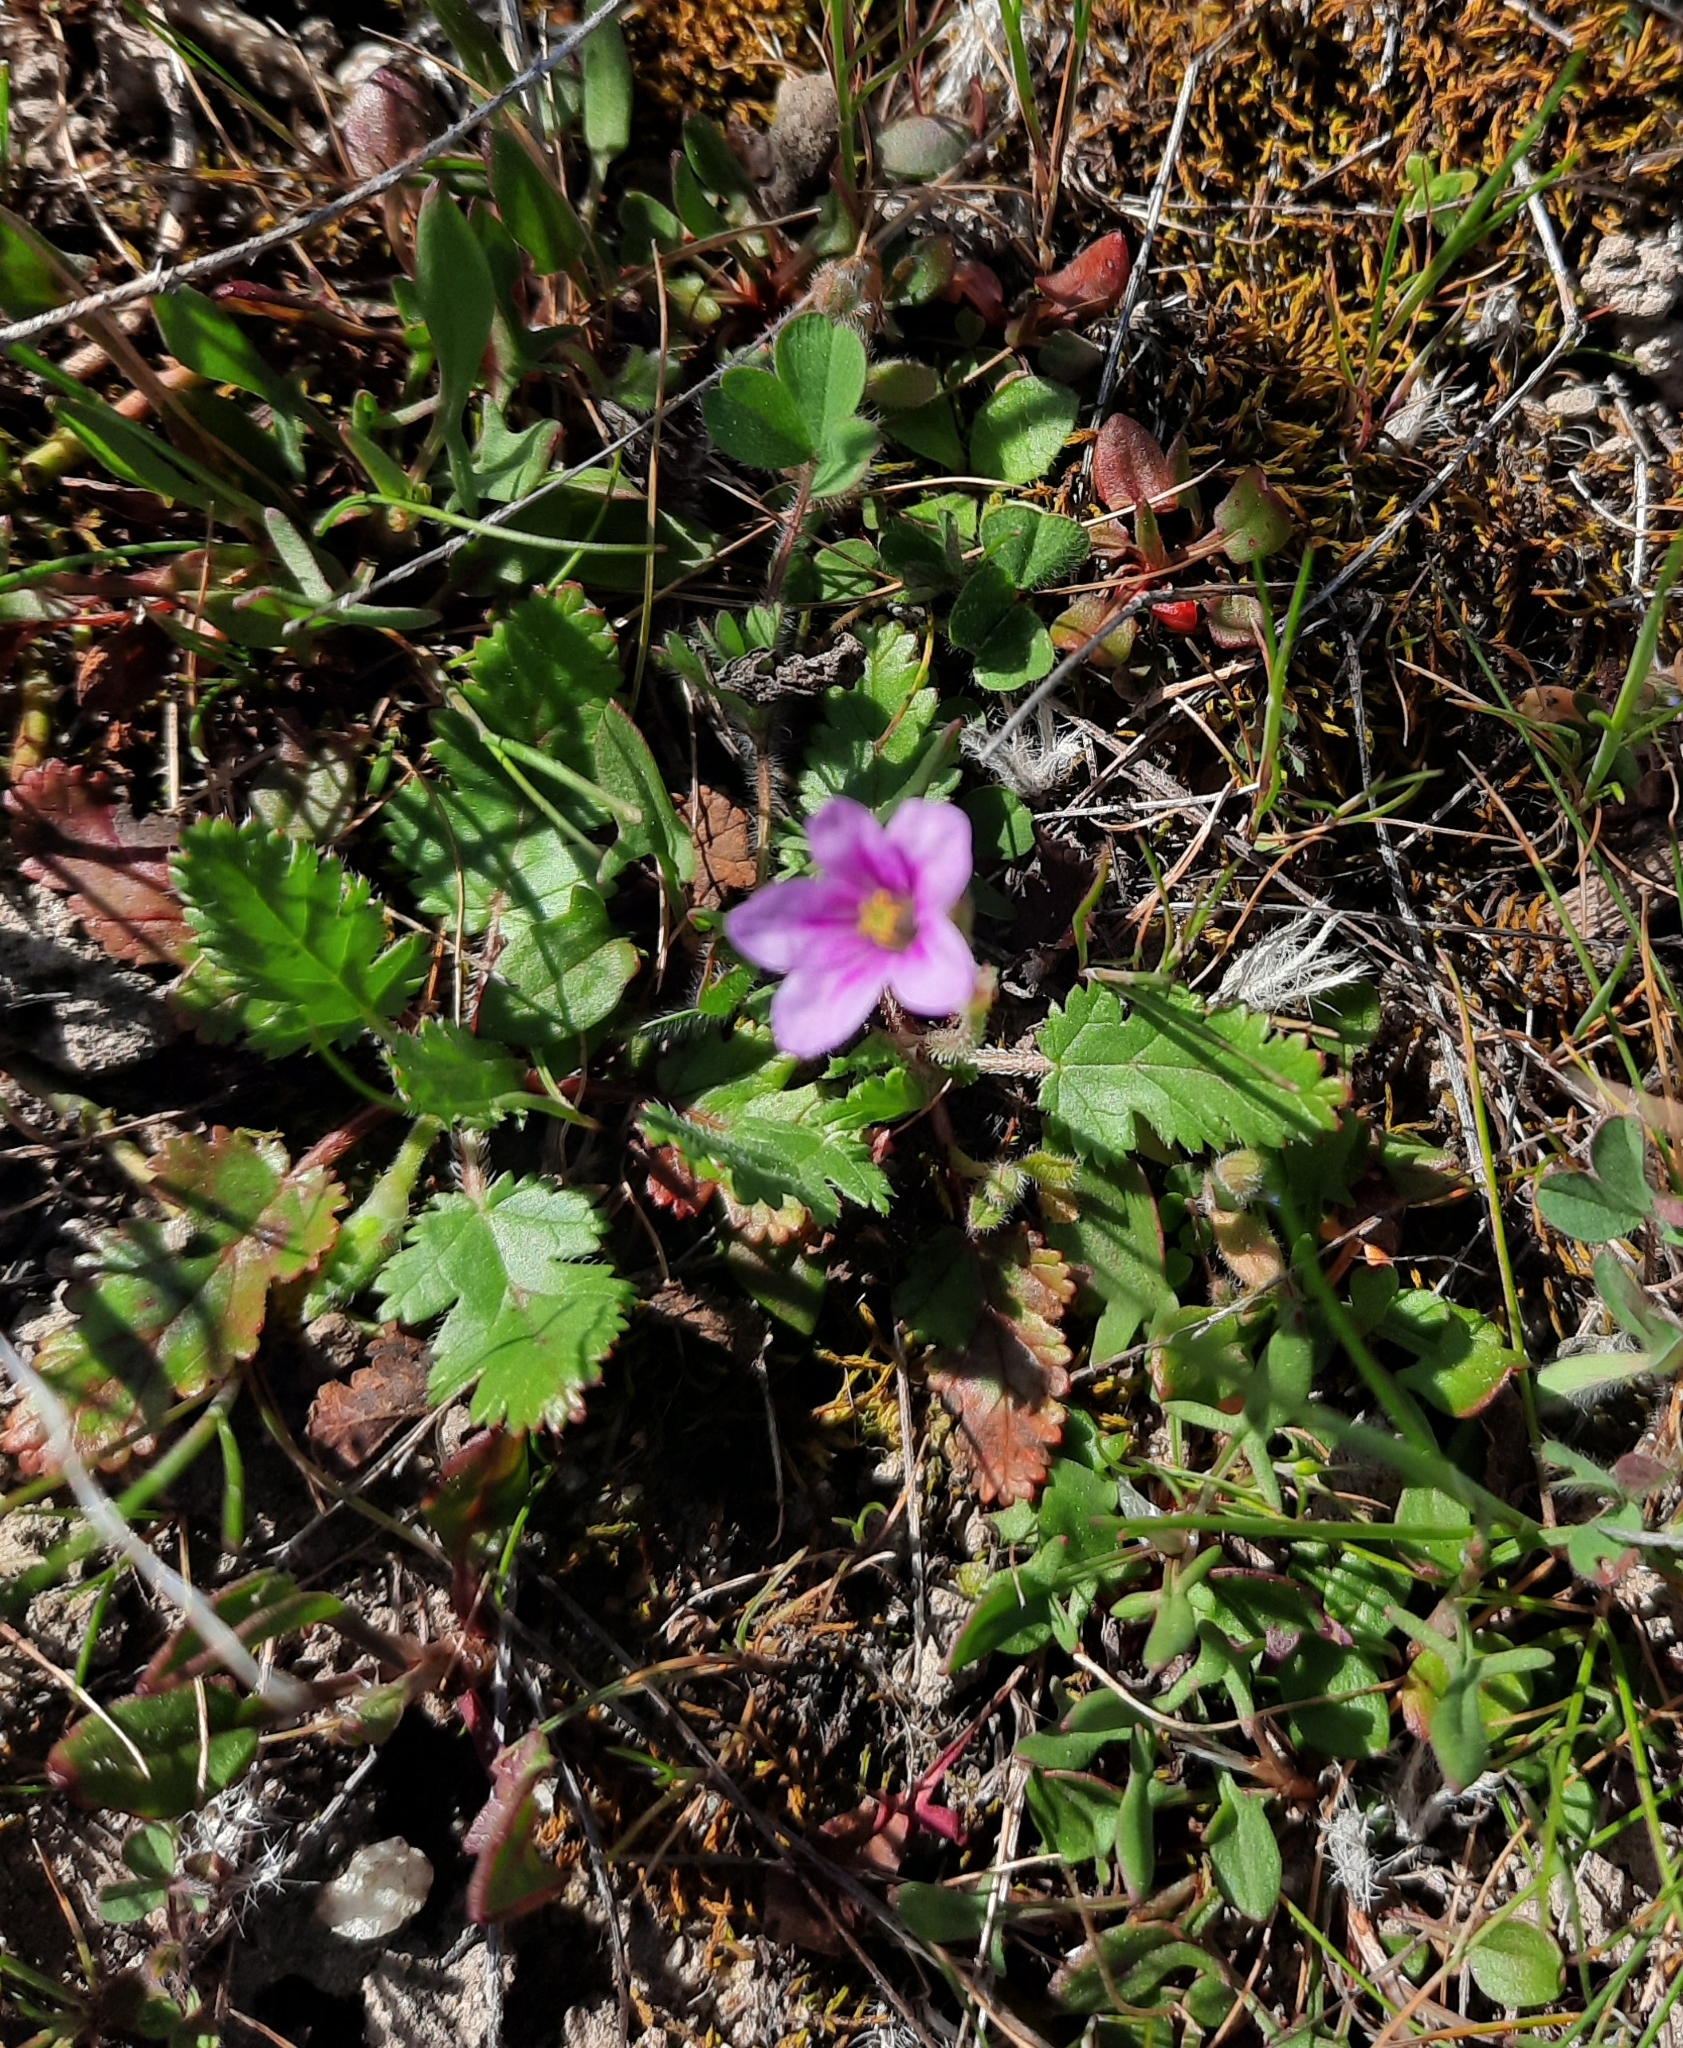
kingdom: Plantae
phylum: Tracheophyta
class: Magnoliopsida
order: Geraniales
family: Geraniaceae
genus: Erodium
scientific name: Erodium botrys
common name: Mediterranean stork's-bill
